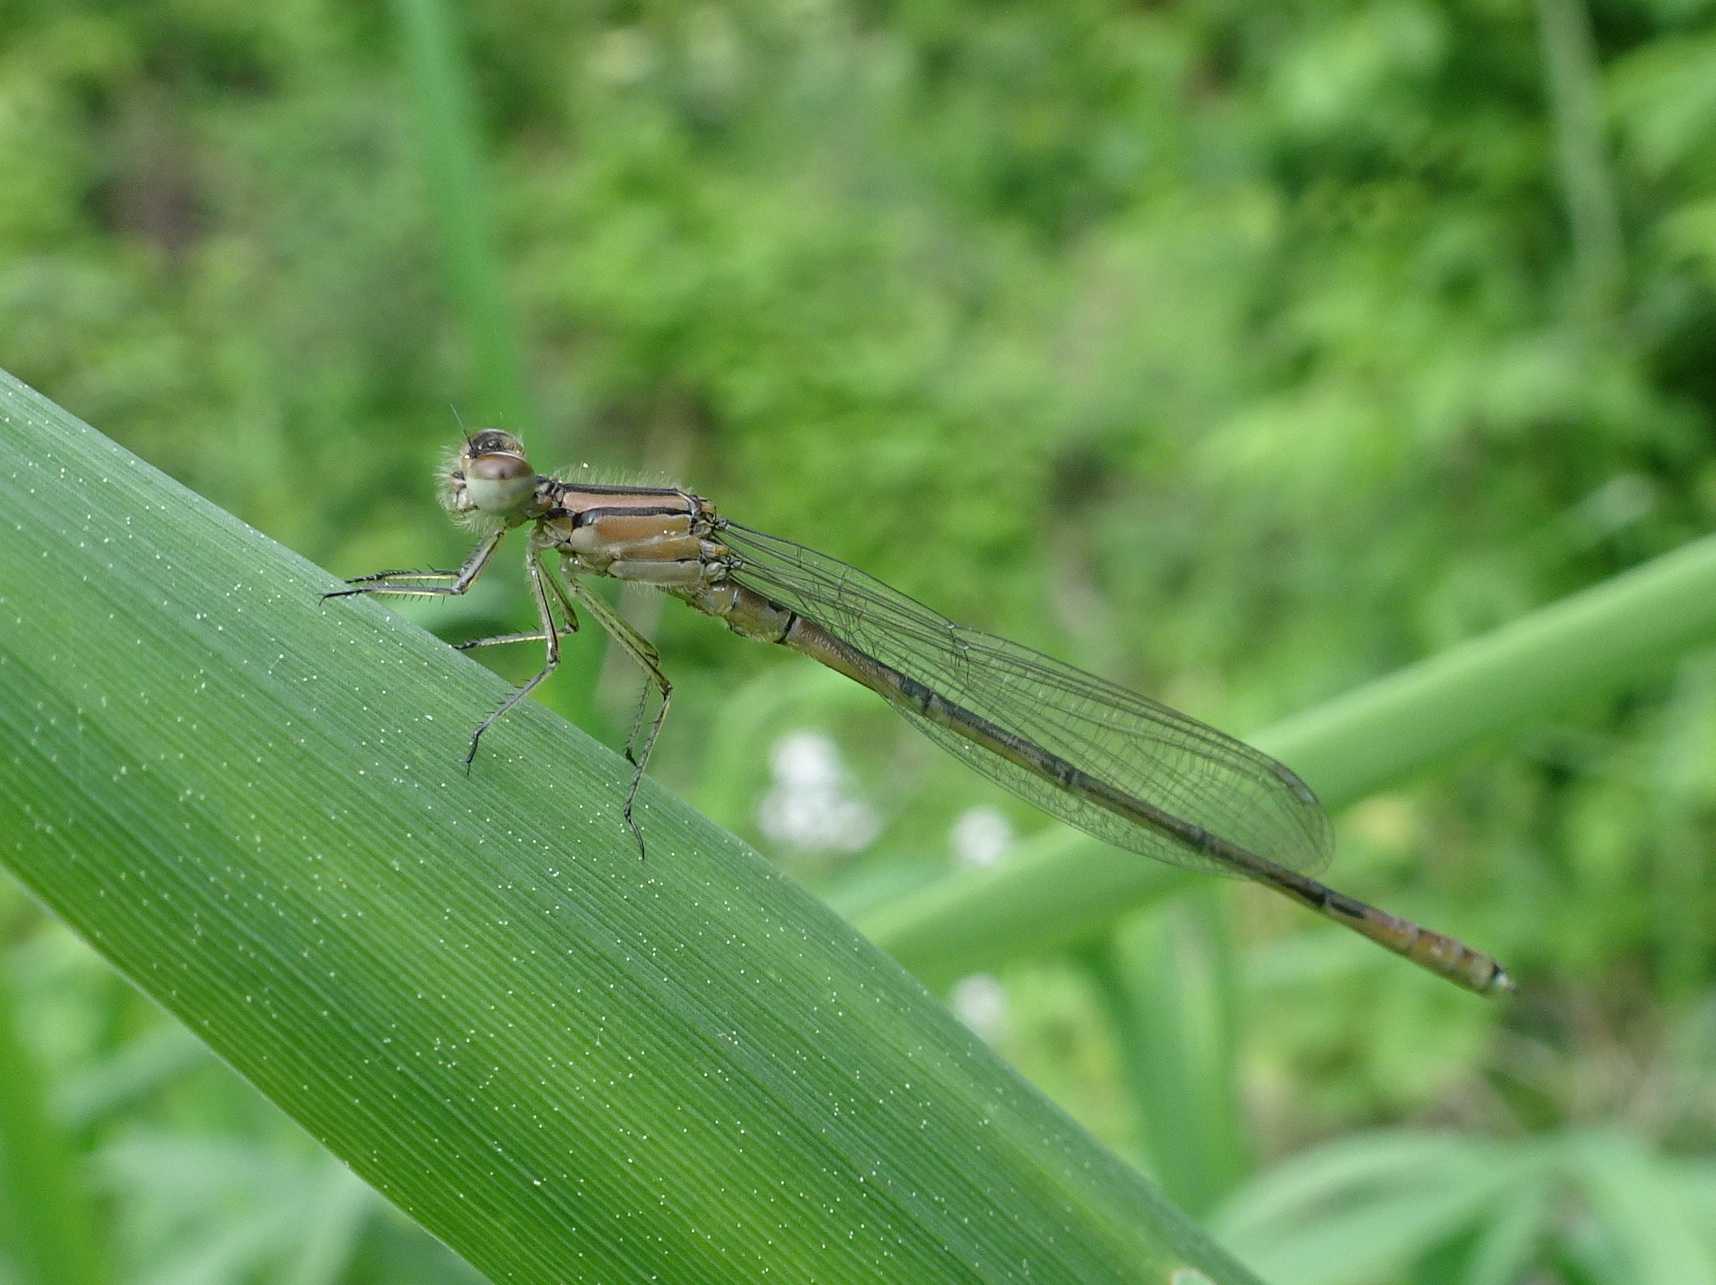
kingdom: Animalia
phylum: Arthropoda
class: Insecta
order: Odonata
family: Coenagrionidae
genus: Enallagma
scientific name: Enallagma aspersum
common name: Azure bluet
